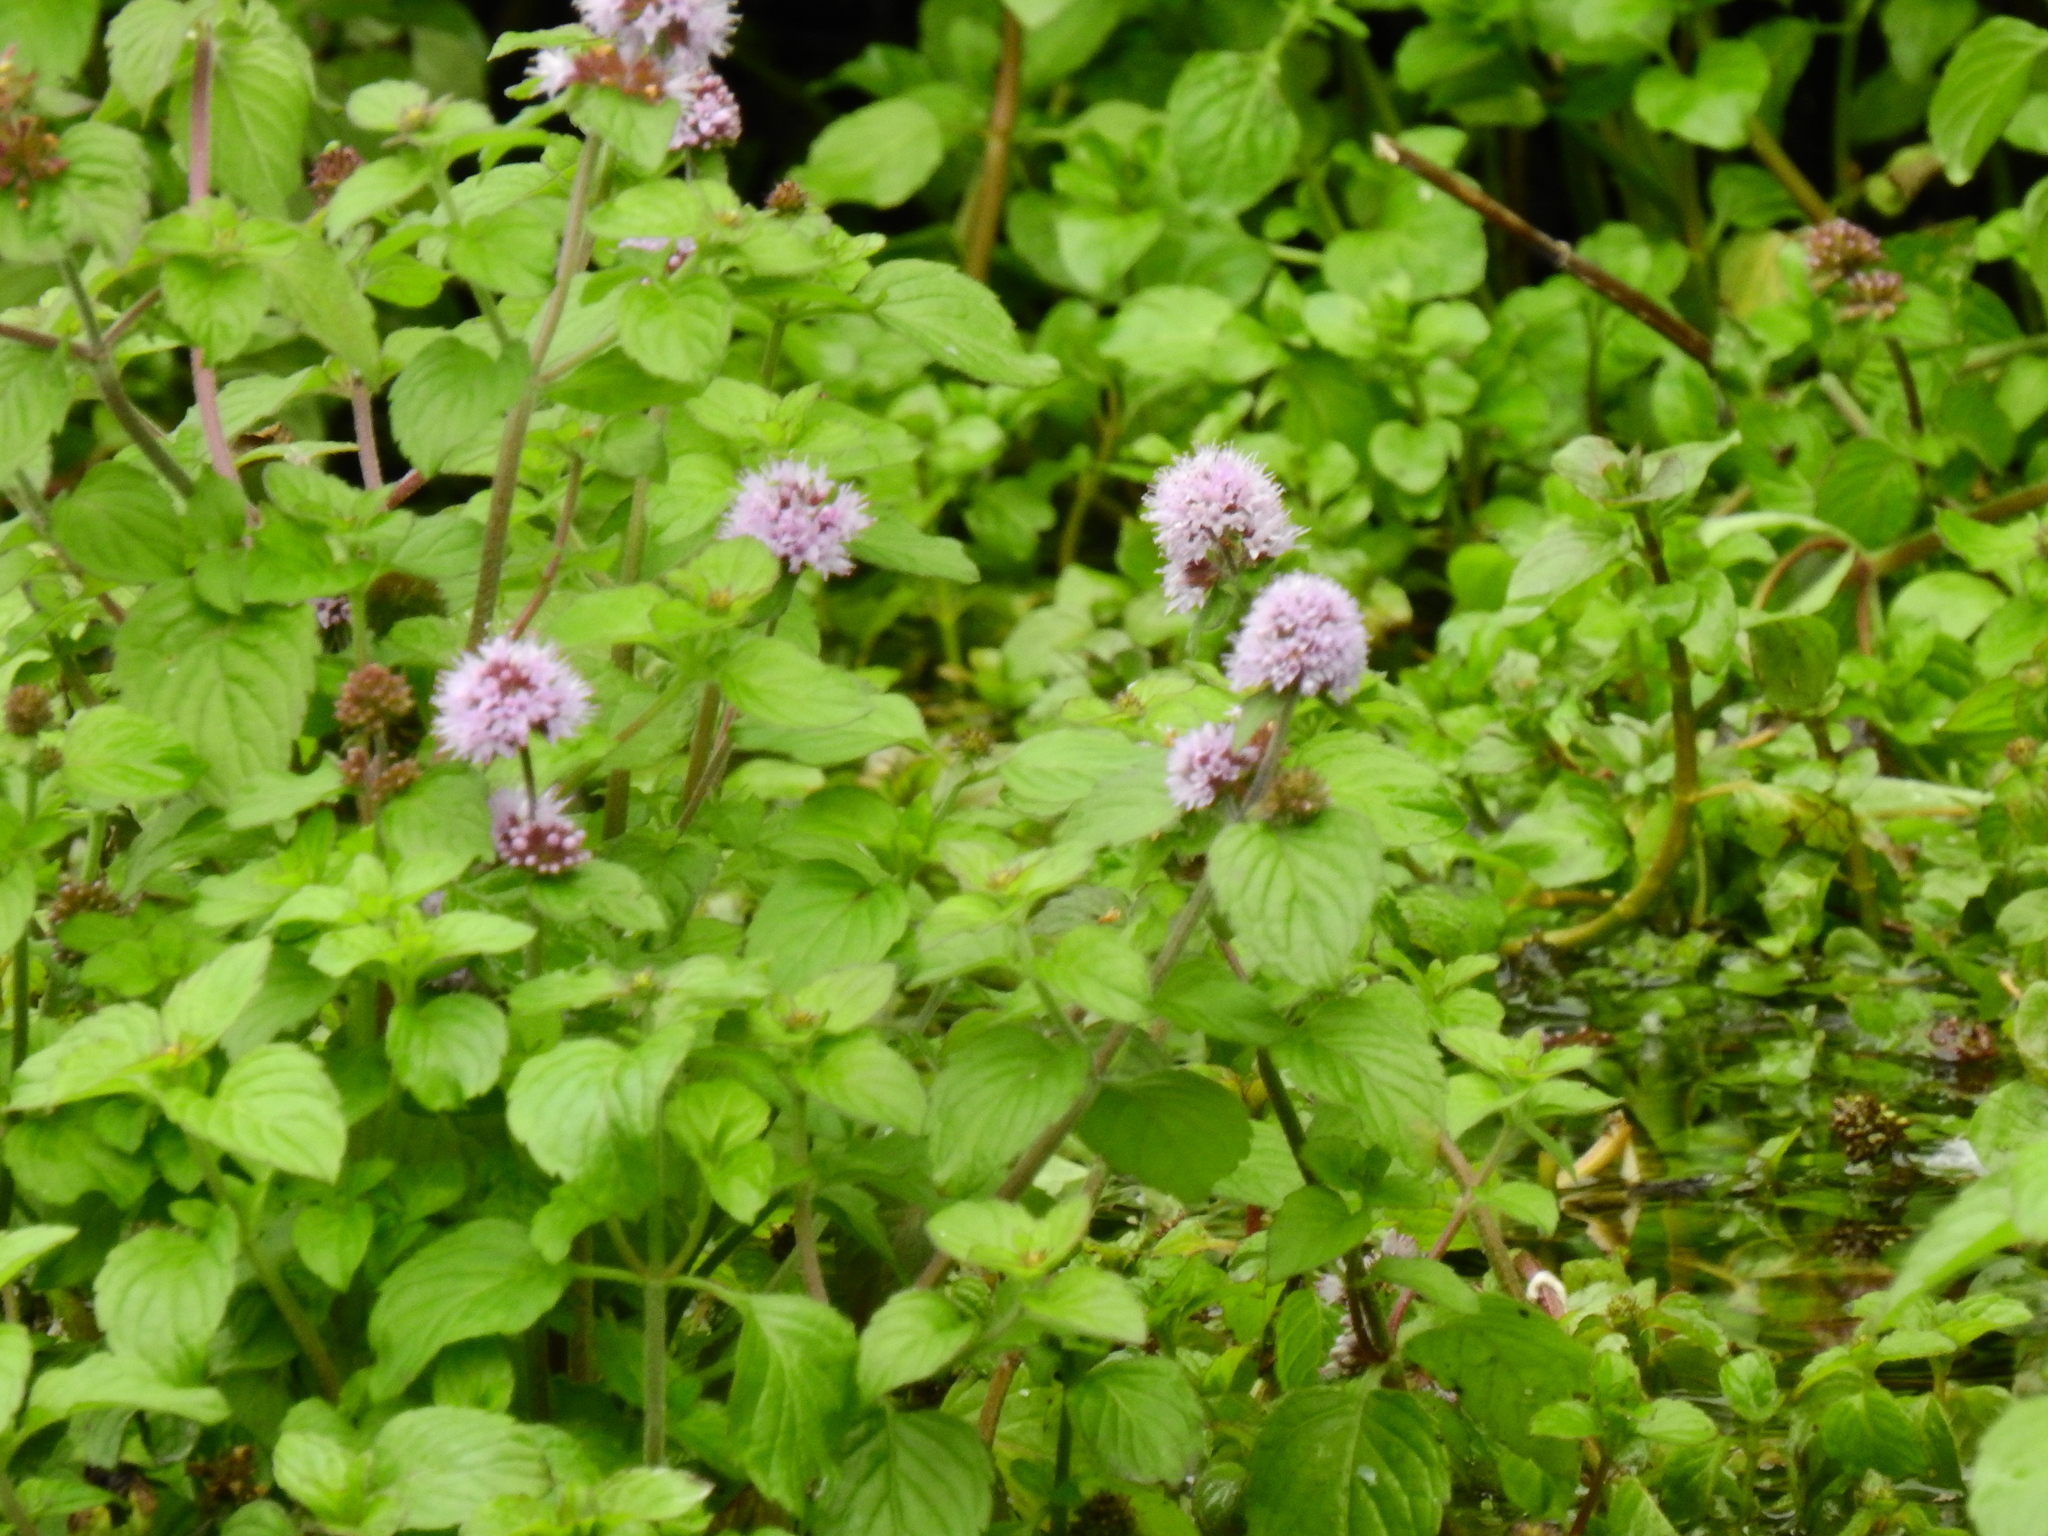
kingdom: Plantae
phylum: Tracheophyta
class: Magnoliopsida
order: Lamiales
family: Lamiaceae
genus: Mentha
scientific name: Mentha aquatica
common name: Water mint
